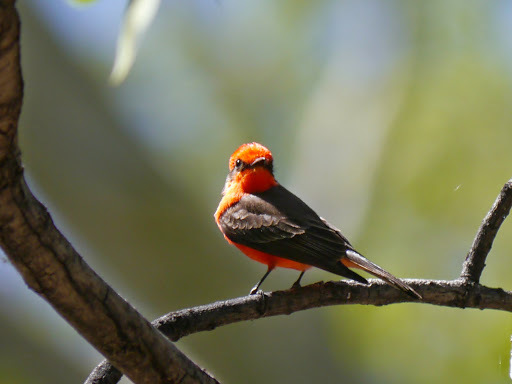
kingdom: Animalia
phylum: Chordata
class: Aves
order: Passeriformes
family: Tyrannidae
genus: Pyrocephalus
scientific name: Pyrocephalus rubinus
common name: Vermilion flycatcher
